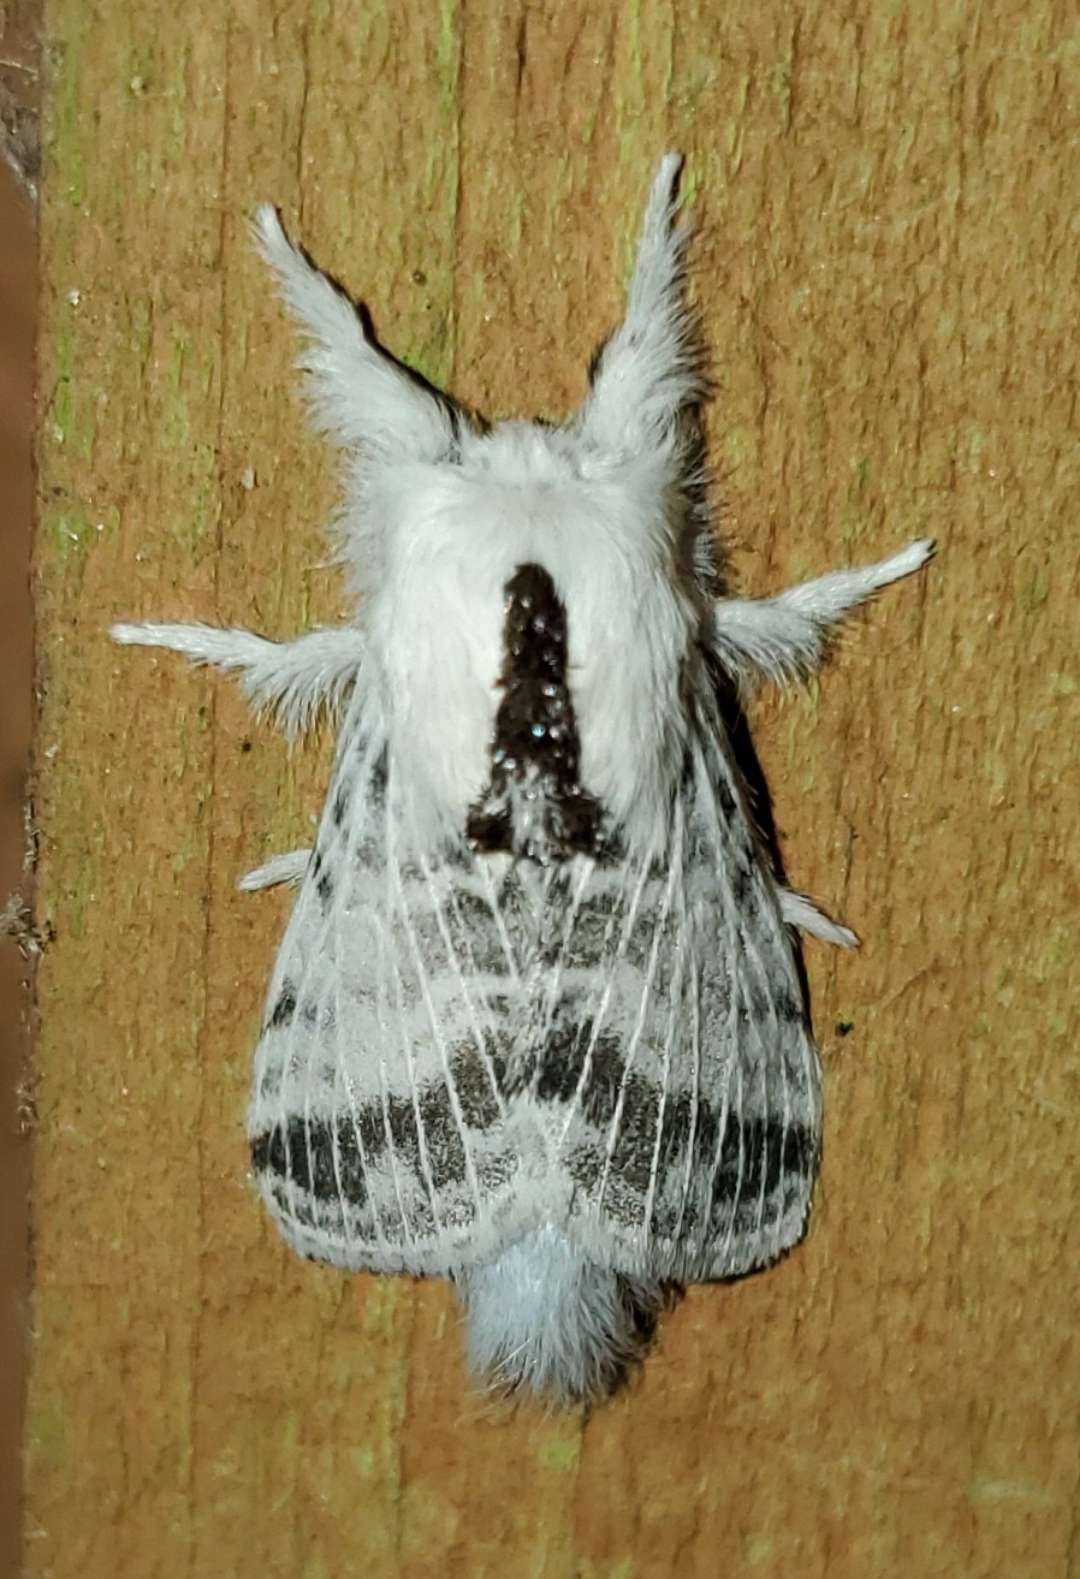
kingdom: Animalia
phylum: Arthropoda
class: Insecta
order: Lepidoptera
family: Lasiocampidae
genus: Tolype
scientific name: Tolype minta
